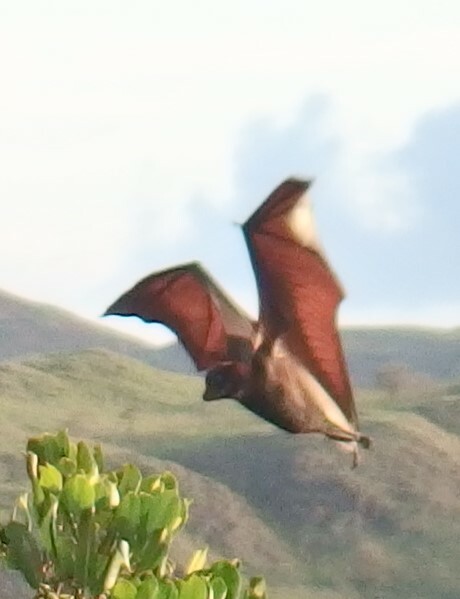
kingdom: Animalia
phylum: Chordata
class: Mammalia
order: Chiroptera
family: Pteropodidae
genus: Acerodon
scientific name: Acerodon macklotii
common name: Sunda fruit bat
